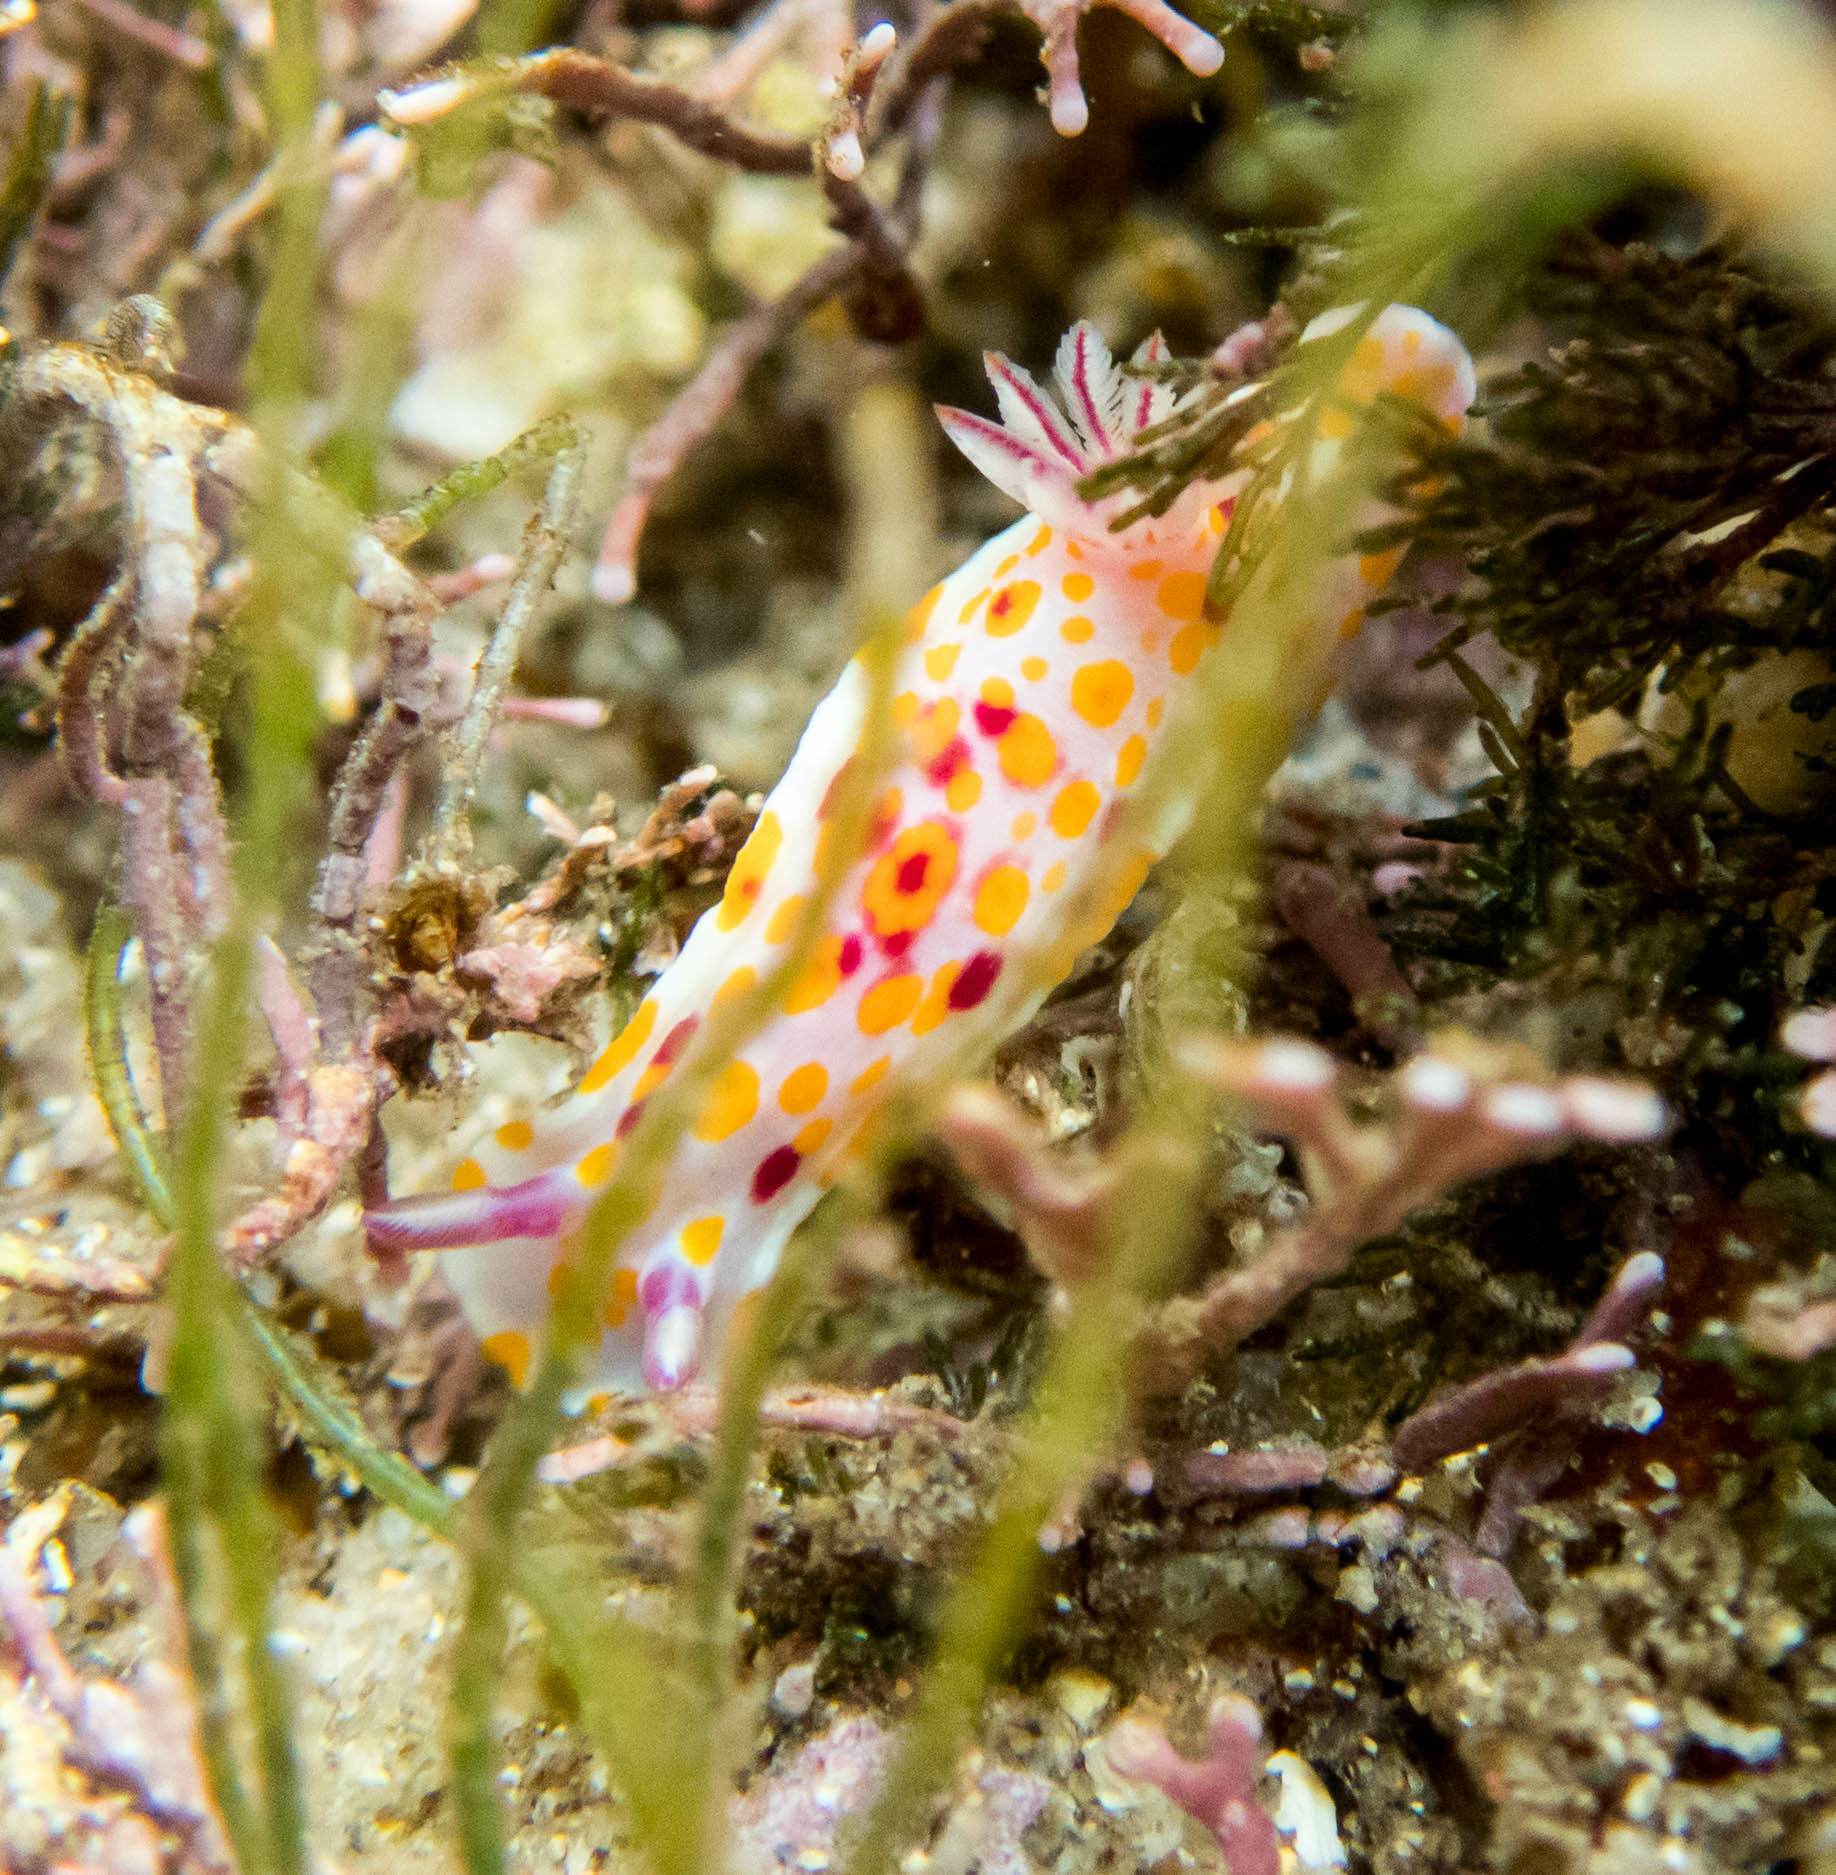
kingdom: Animalia
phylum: Mollusca
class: Gastropoda
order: Nudibranchia
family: Chromodorididae
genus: Ceratosoma
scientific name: Ceratosoma amoenum
